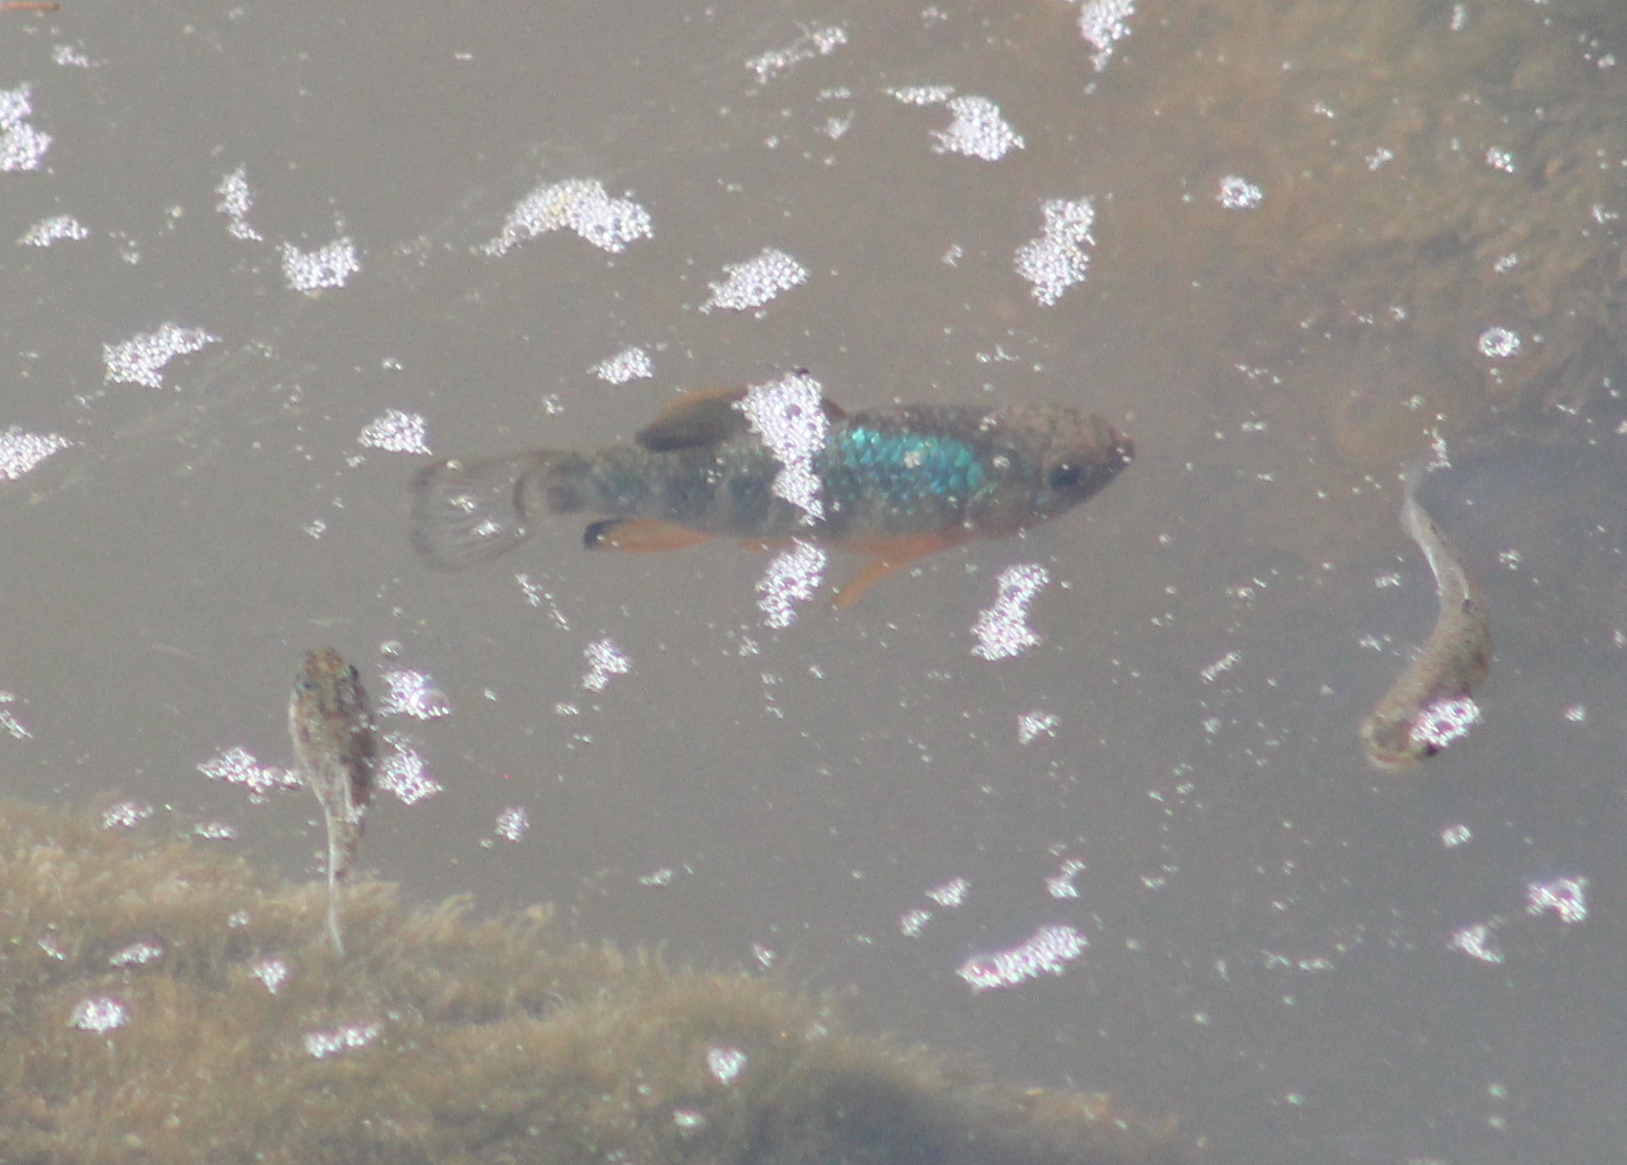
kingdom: Animalia
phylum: Chordata
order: Cyprinodontiformes
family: Cyprinodontidae
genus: Cyprinodon
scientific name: Cyprinodon variegatus
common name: Sheepshead minnow
